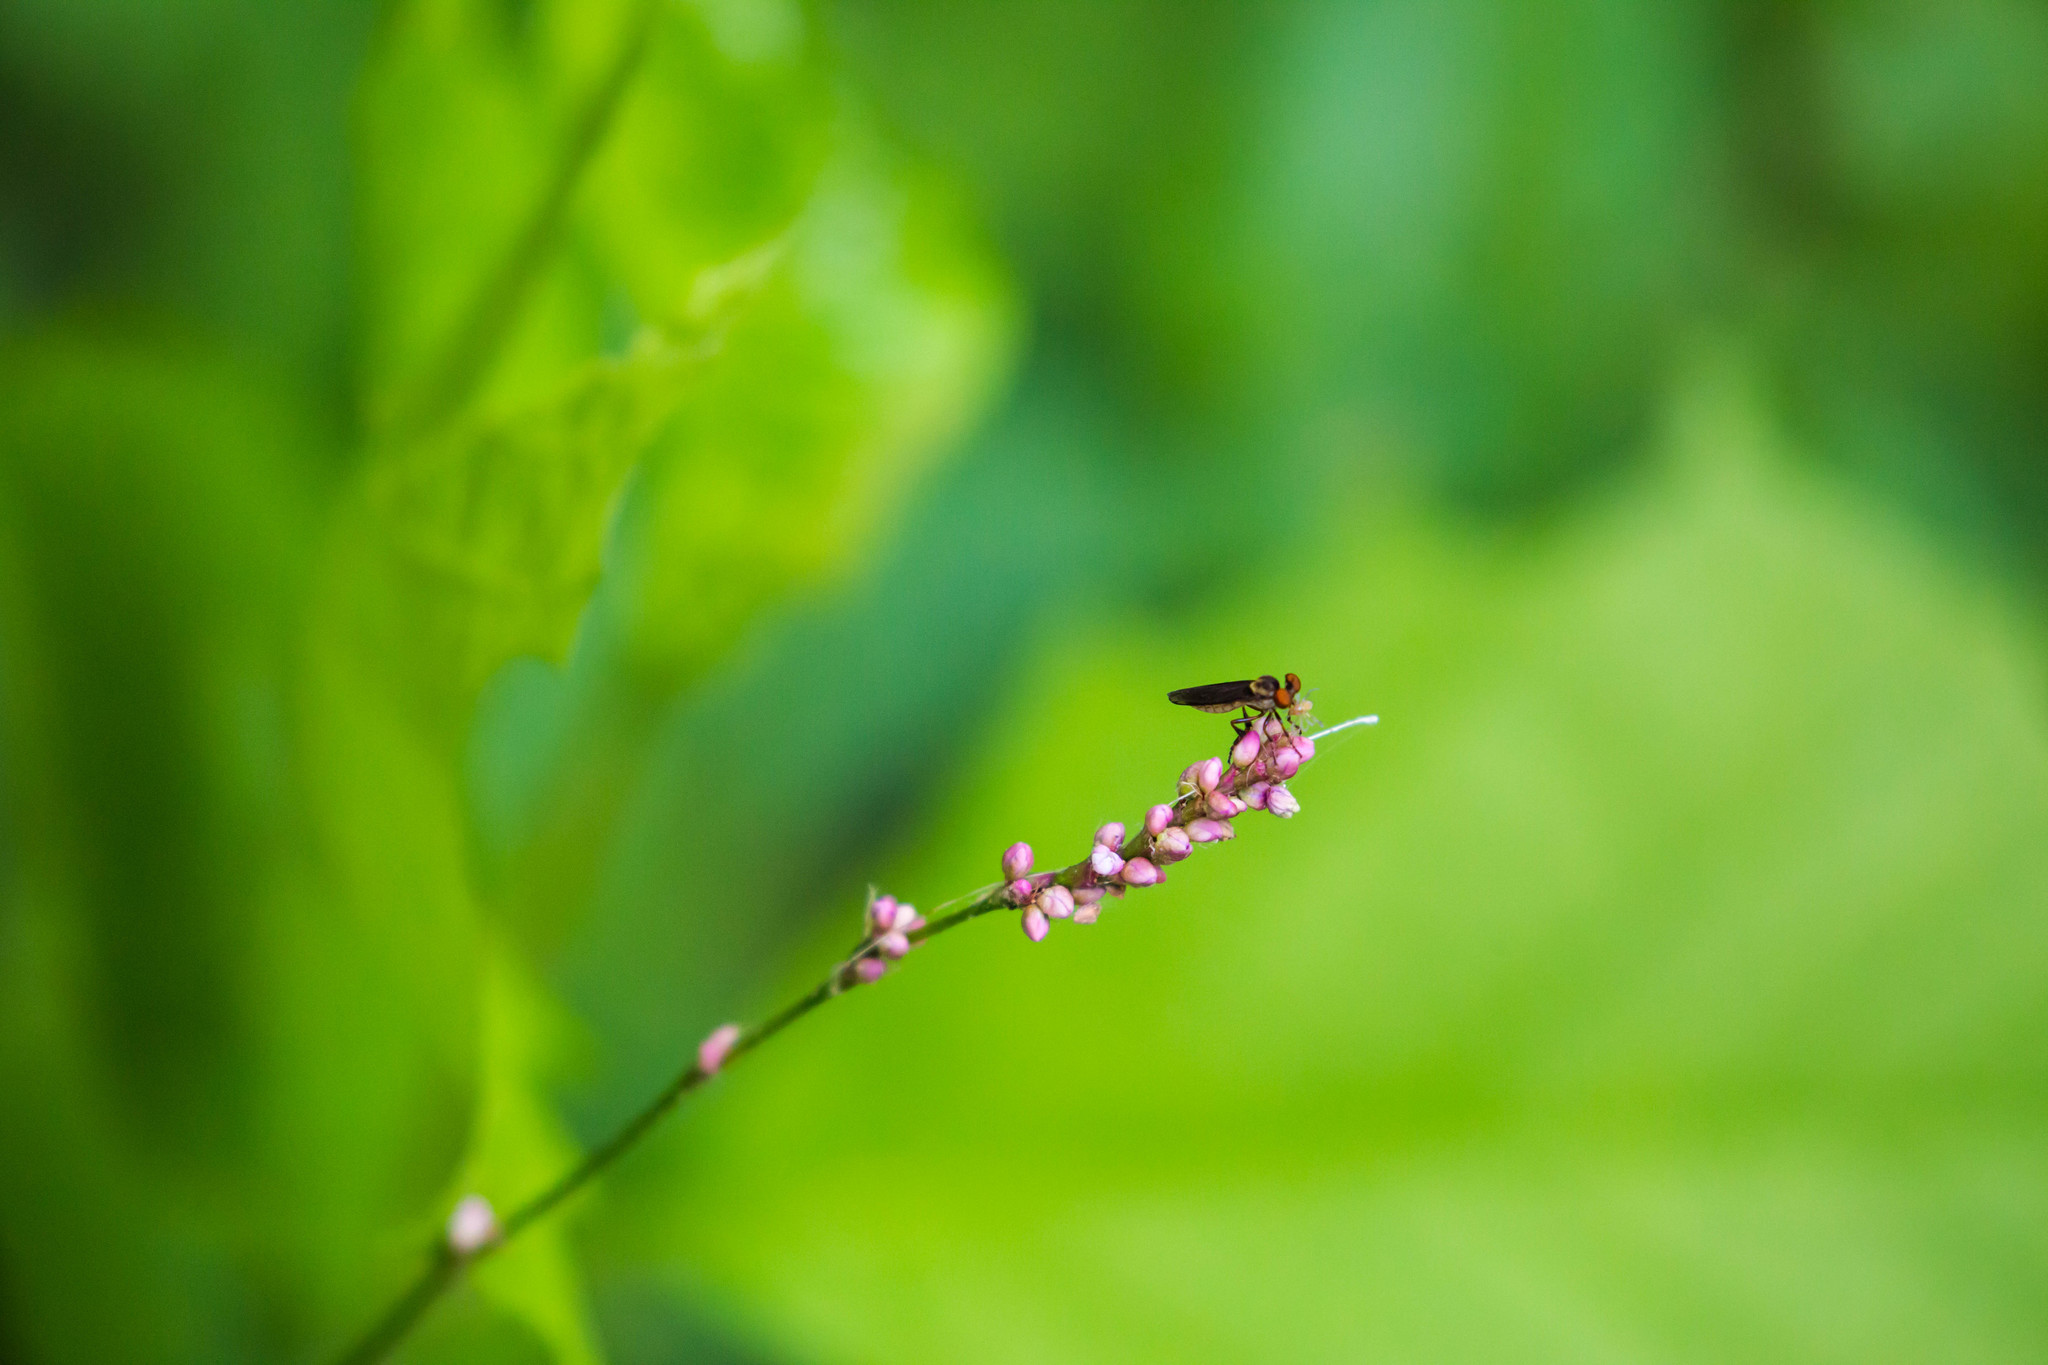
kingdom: Plantae
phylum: Tracheophyta
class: Magnoliopsida
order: Caryophyllales
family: Polygonaceae
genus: Persicaria
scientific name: Persicaria longiseta
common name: Bristly lady's-thumb
